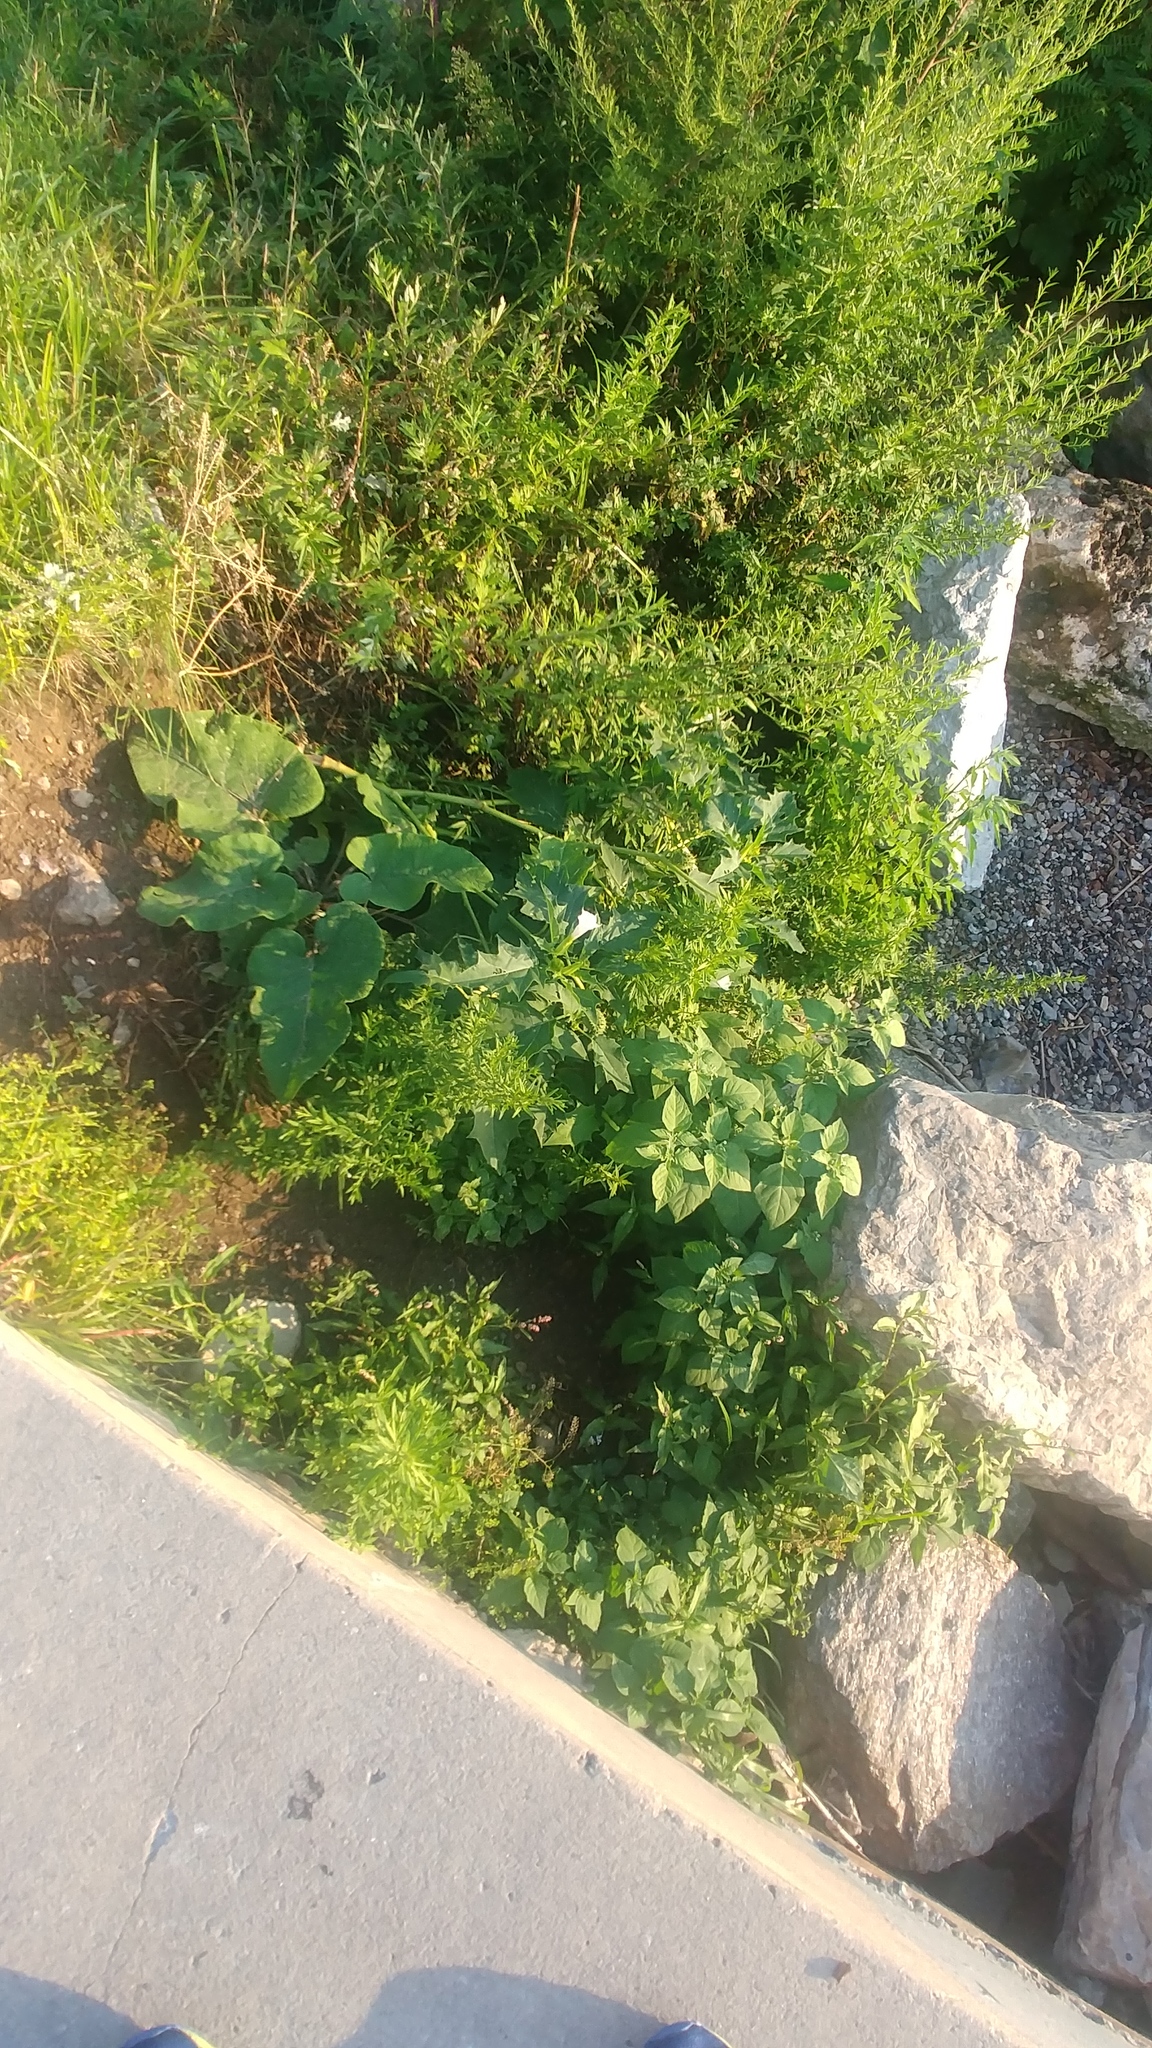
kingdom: Plantae
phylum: Tracheophyta
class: Magnoliopsida
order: Solanales
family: Solanaceae
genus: Datura
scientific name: Datura stramonium
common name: Thorn-apple
